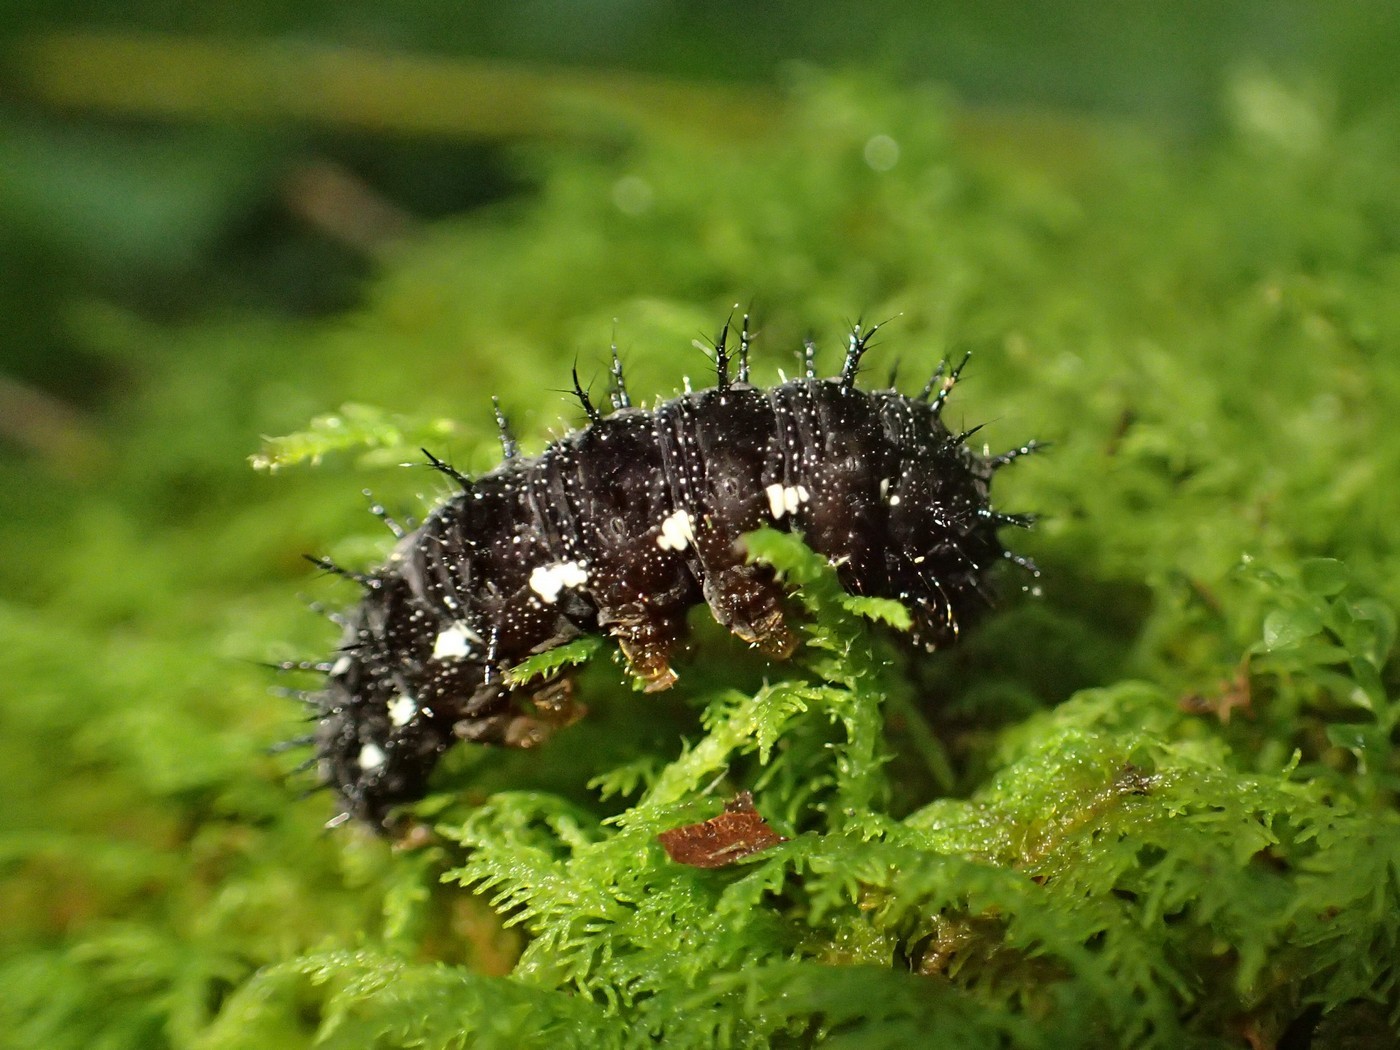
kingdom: Animalia
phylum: Arthropoda
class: Insecta
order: Lepidoptera
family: Nymphalidae
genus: Vanessa
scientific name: Vanessa atalanta
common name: Red admiral
